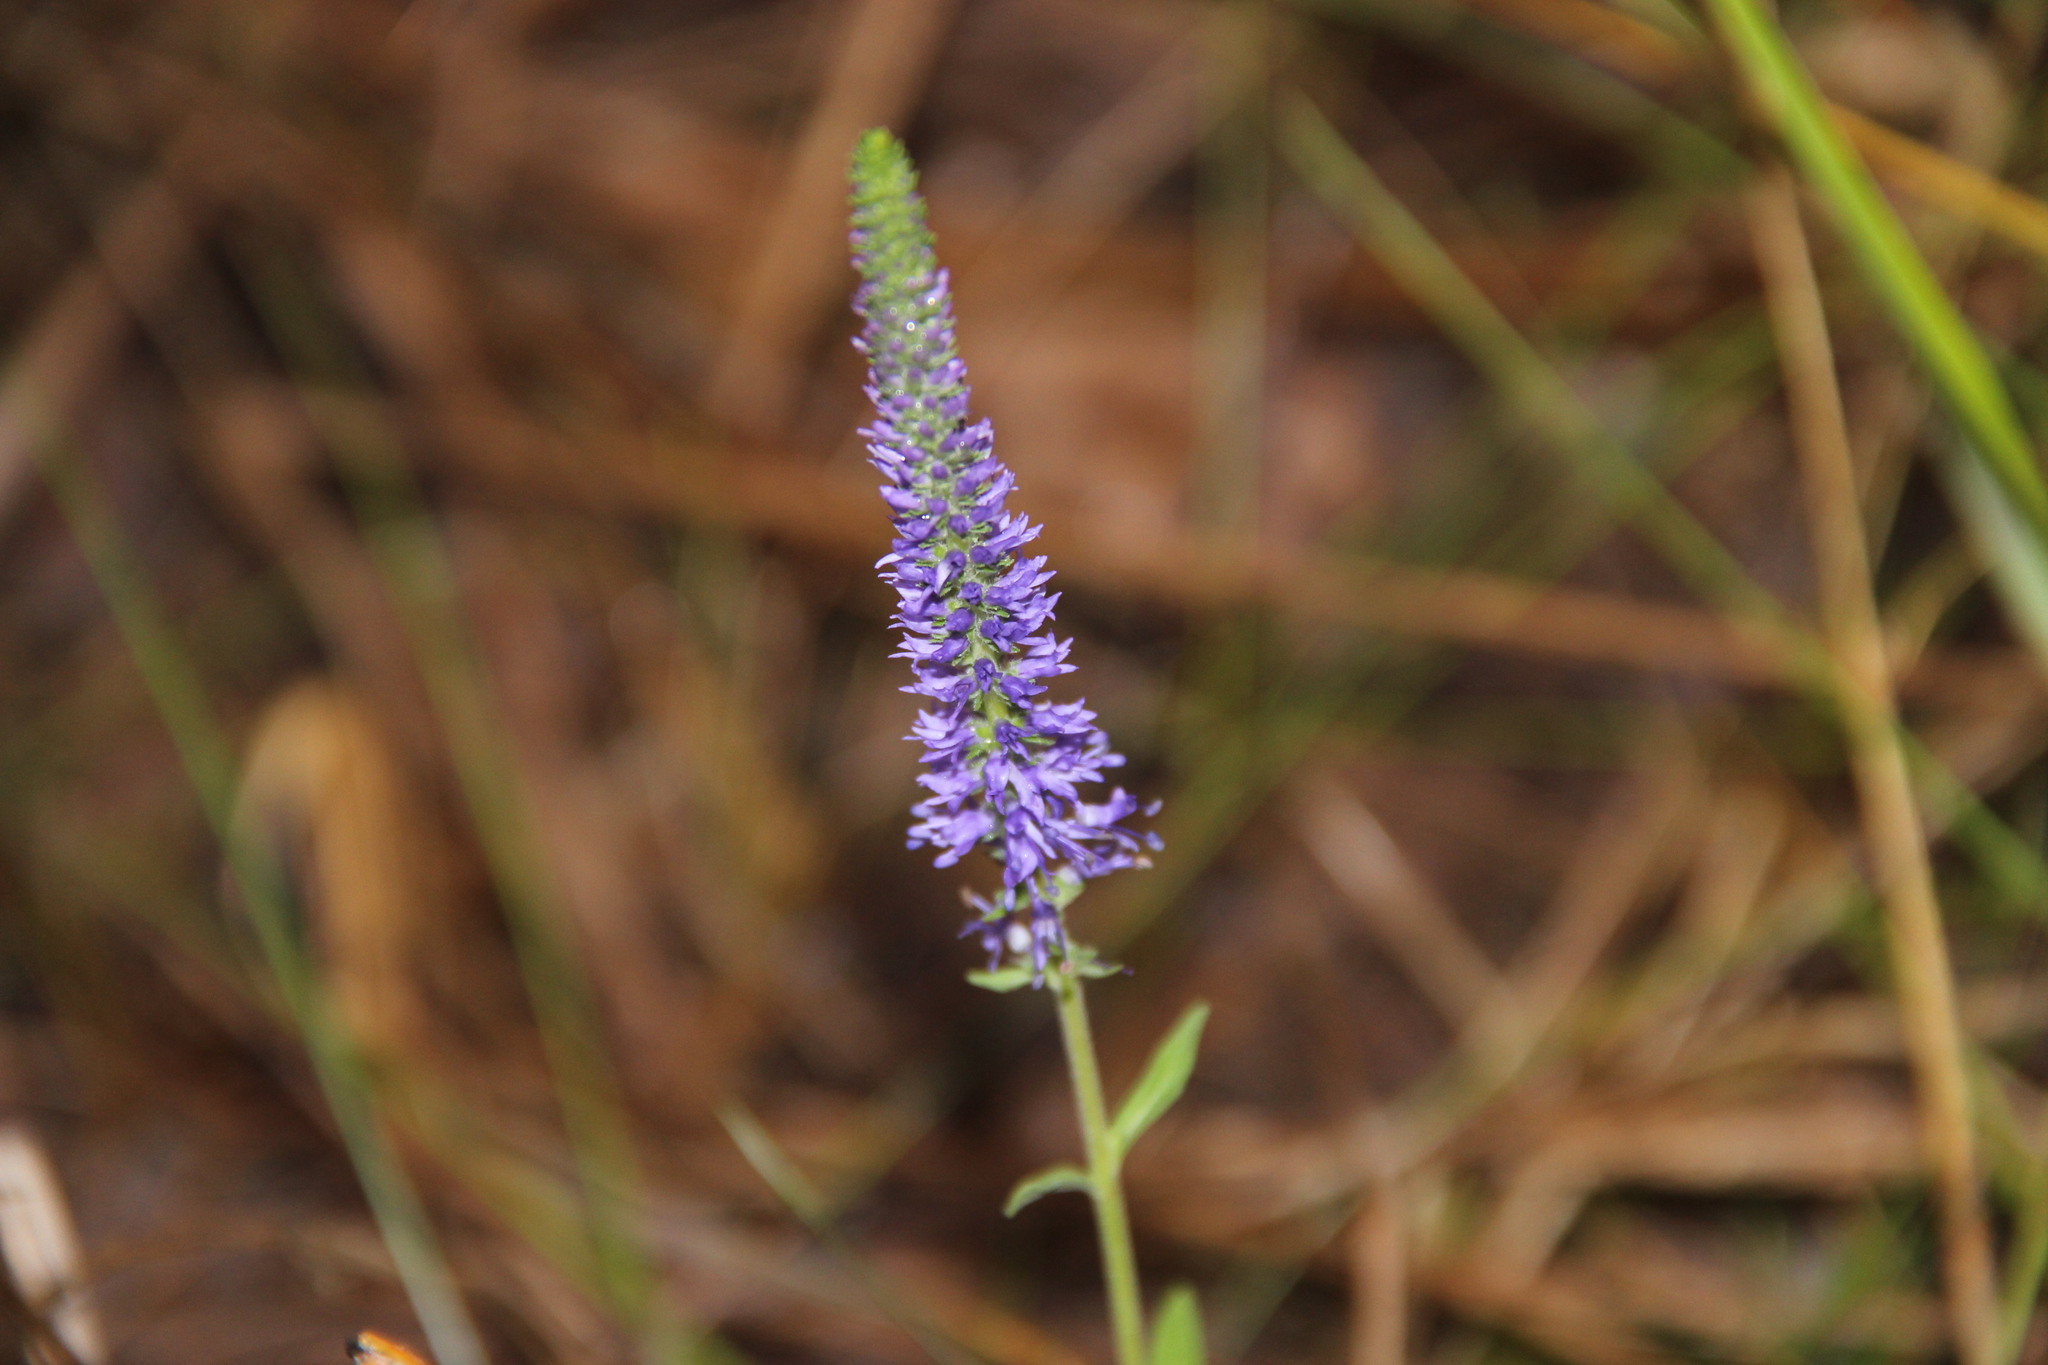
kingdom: Plantae
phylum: Tracheophyta
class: Magnoliopsida
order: Lamiales
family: Plantaginaceae
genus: Veronica
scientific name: Veronica spicata
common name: Spiked speedwell
